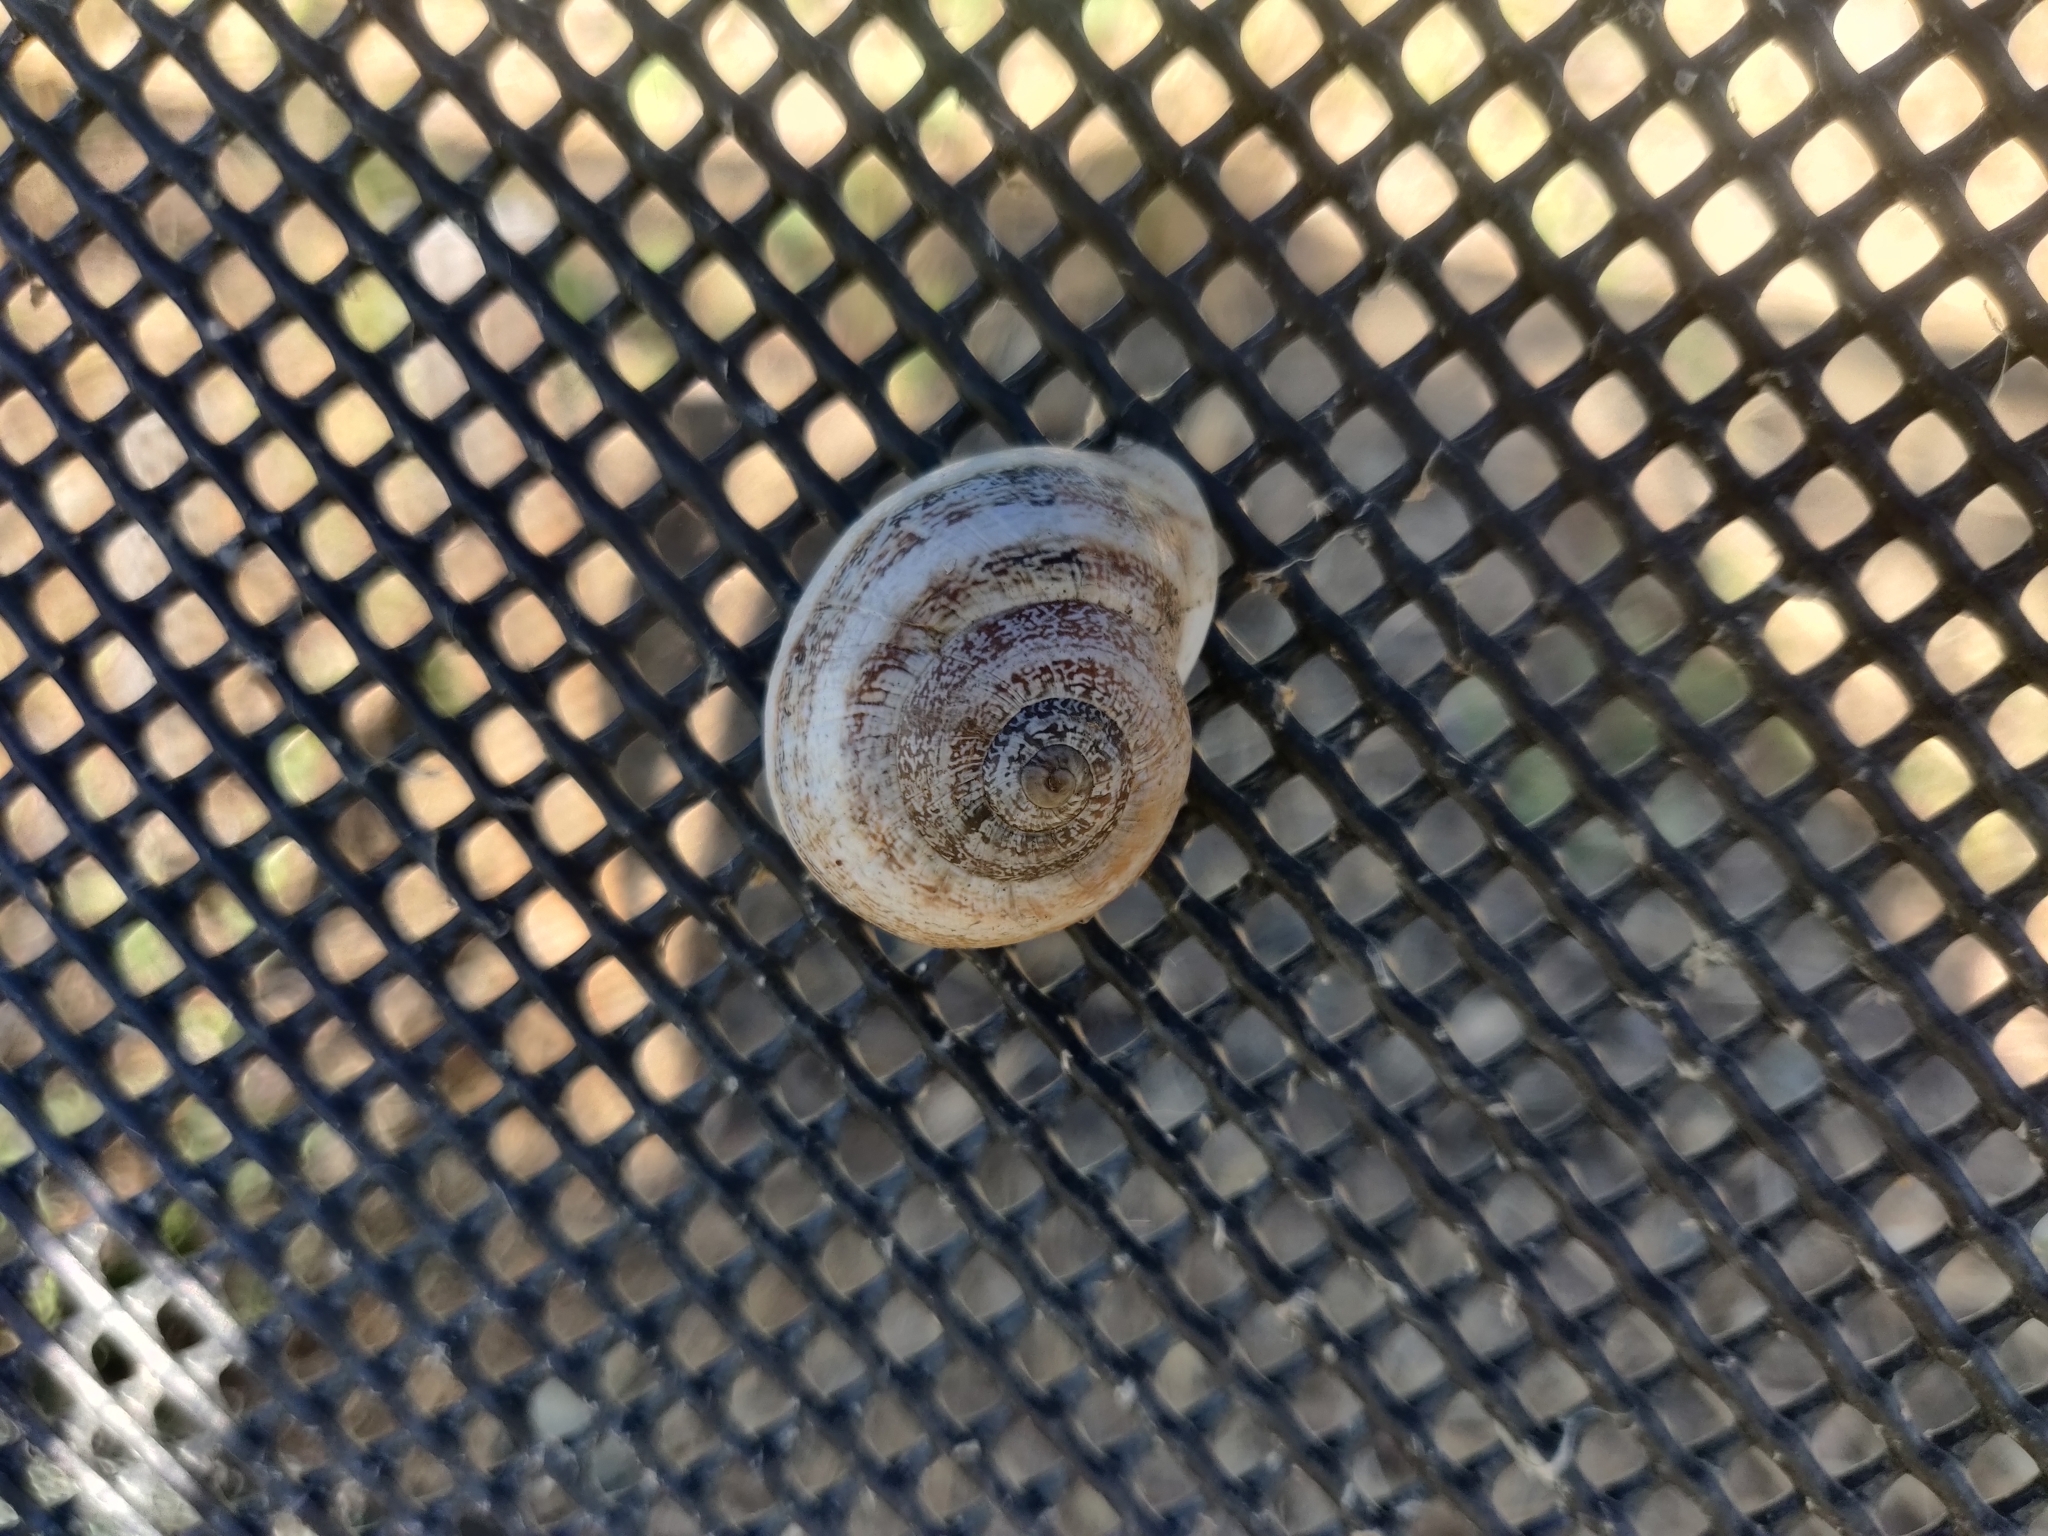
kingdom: Animalia
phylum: Mollusca
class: Gastropoda
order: Stylommatophora
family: Helicidae
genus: Otala
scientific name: Otala lactea
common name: Milk snail
